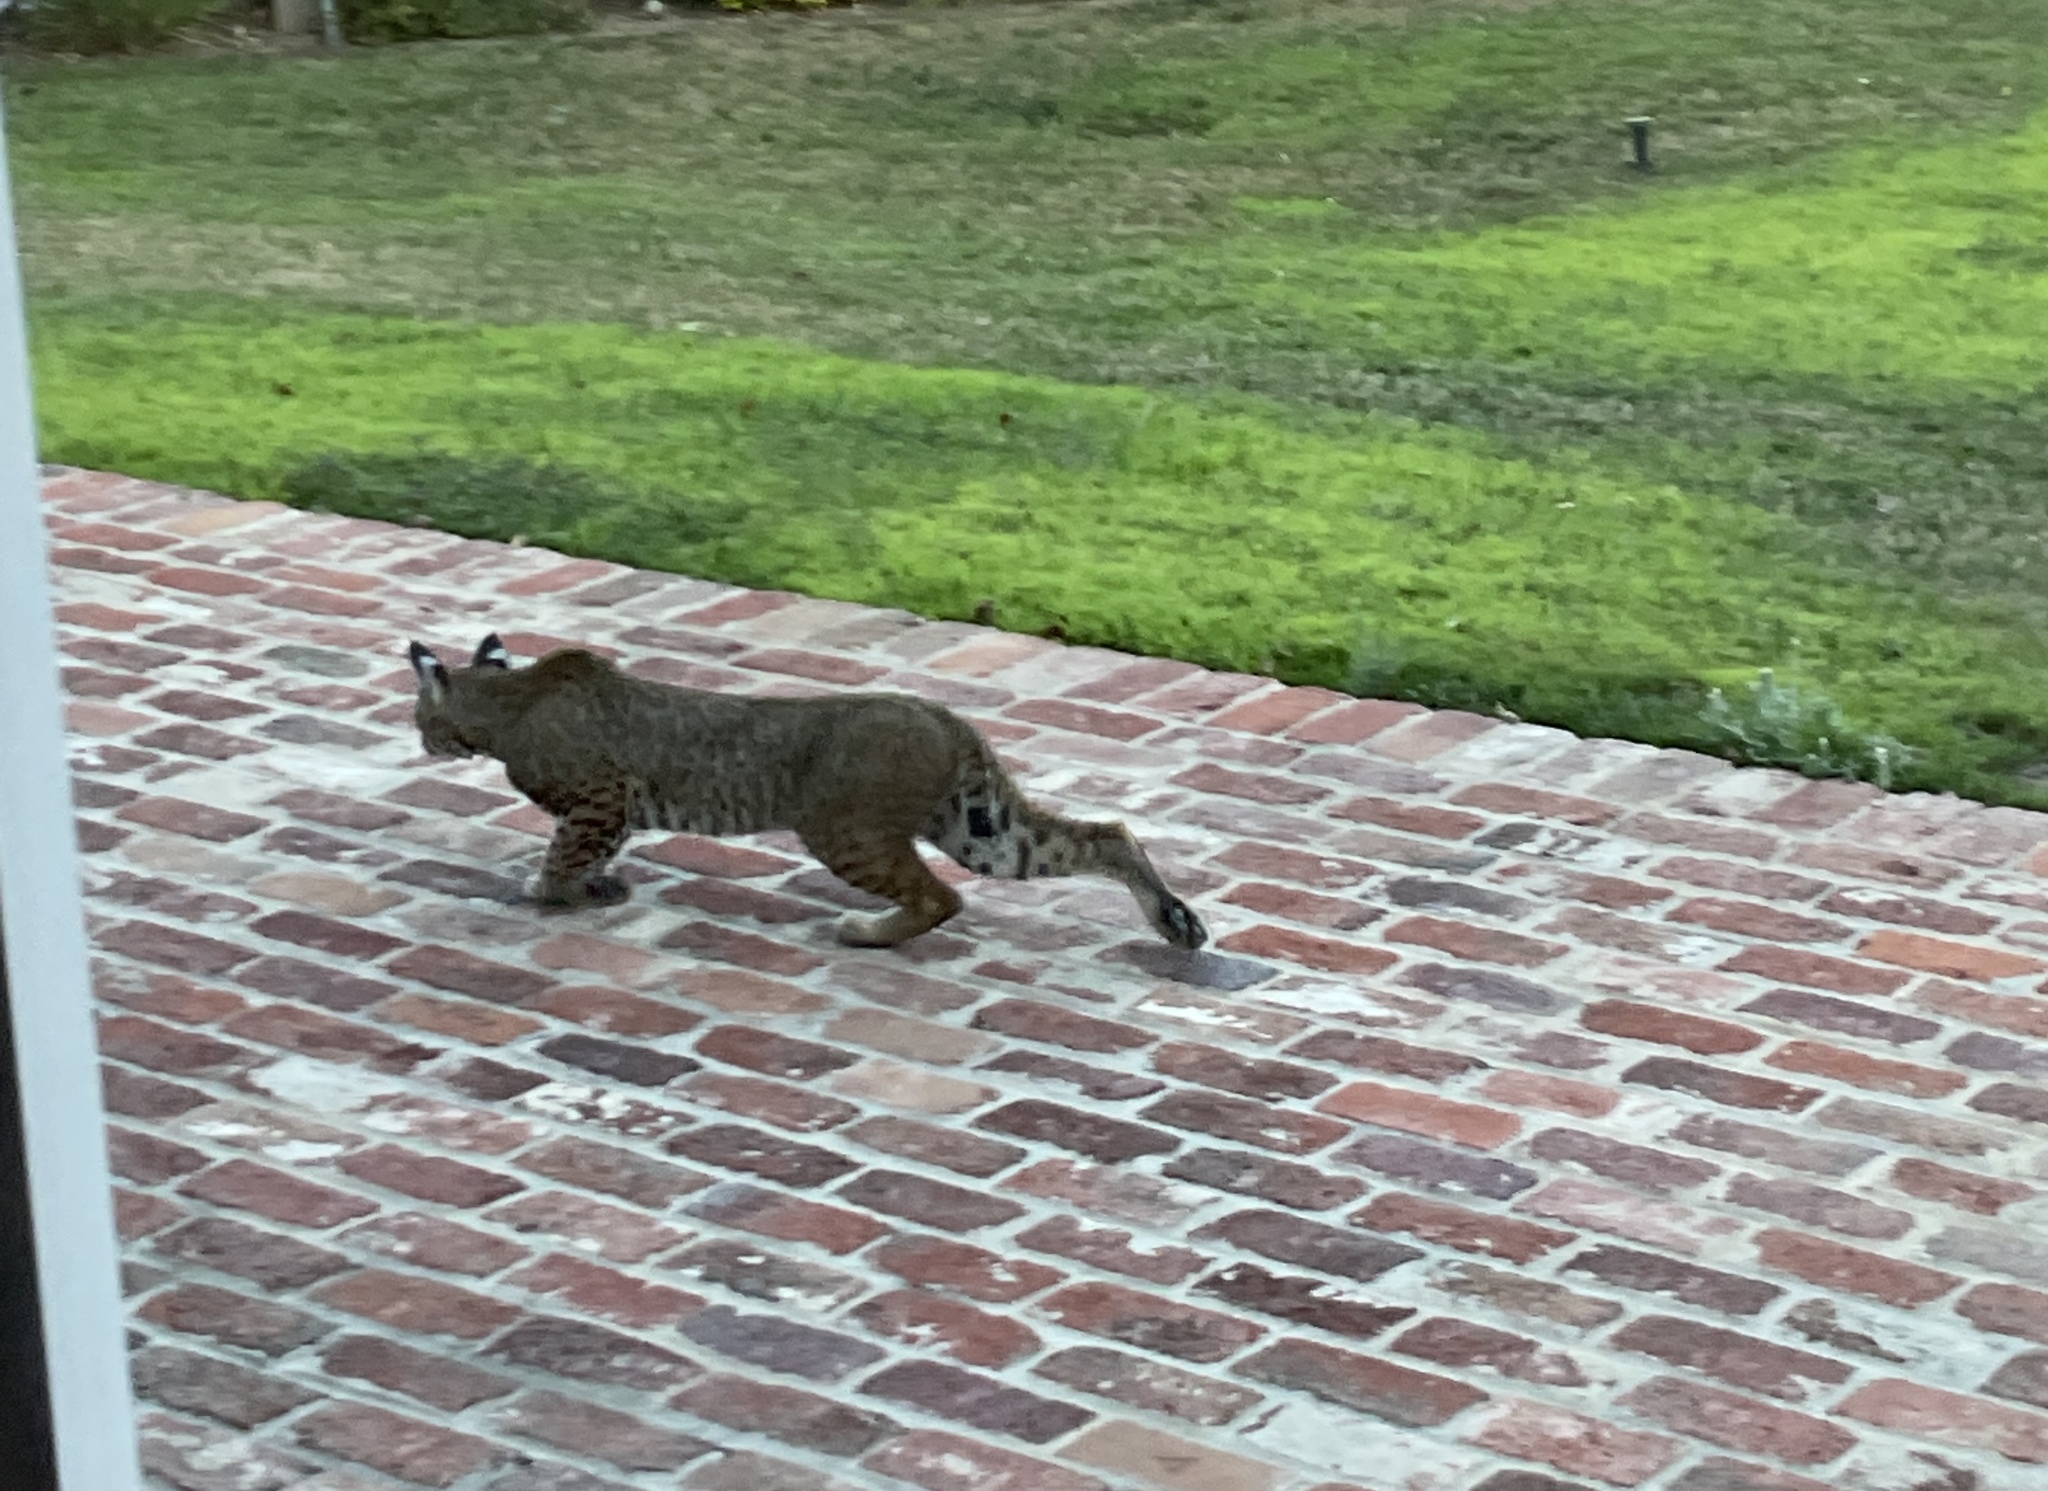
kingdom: Animalia
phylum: Chordata
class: Mammalia
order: Carnivora
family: Felidae
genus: Lynx
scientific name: Lynx rufus
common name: Bobcat
